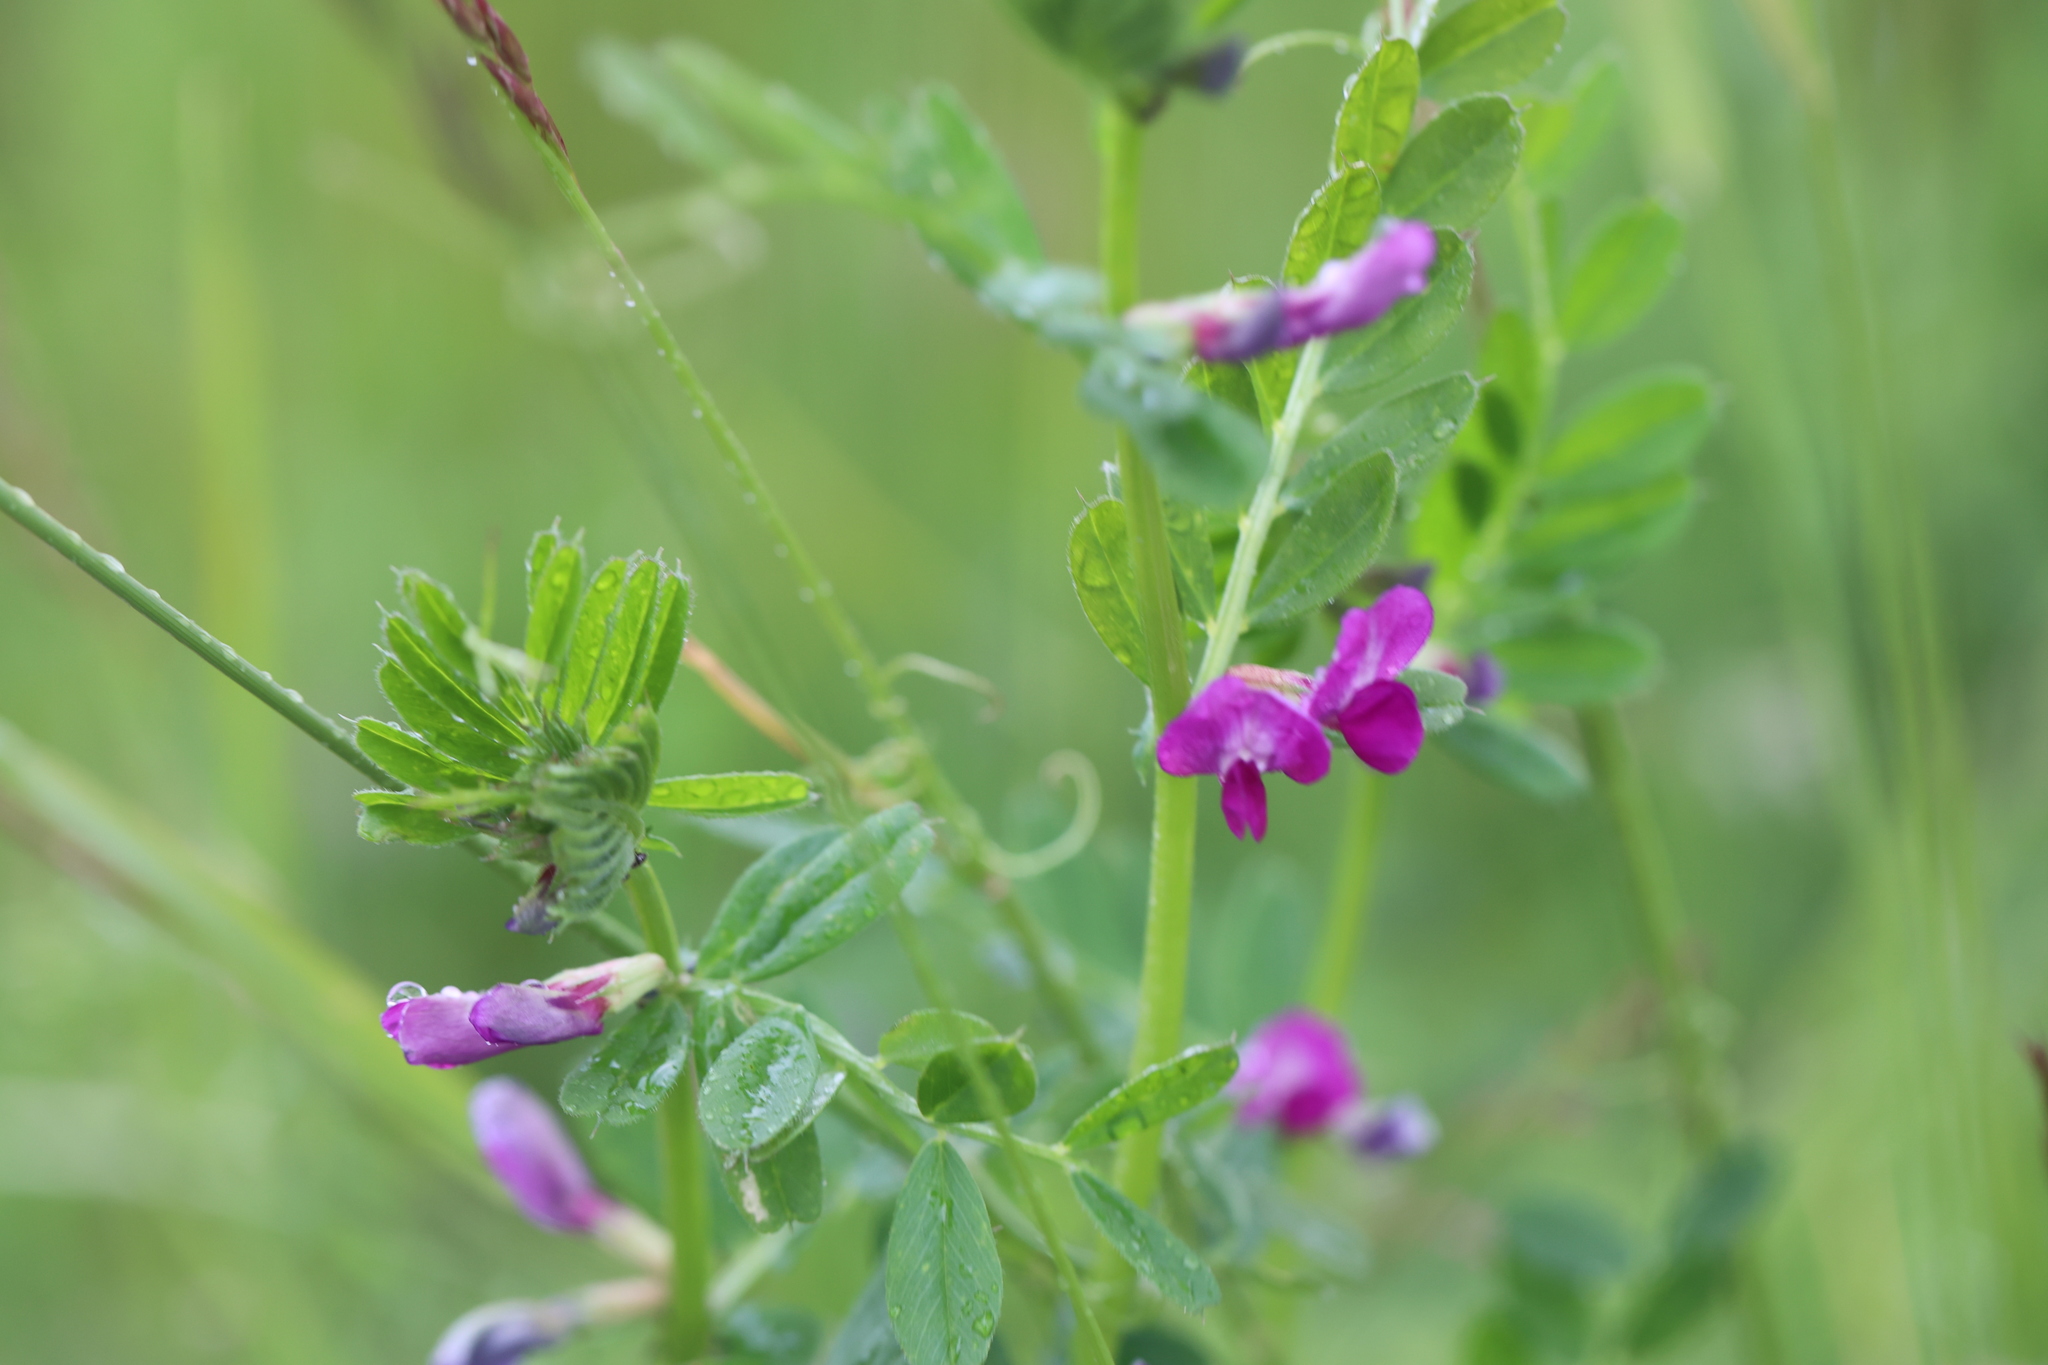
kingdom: Plantae
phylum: Tracheophyta
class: Magnoliopsida
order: Fabales
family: Fabaceae
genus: Vicia
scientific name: Vicia sativa
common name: Garden vetch
